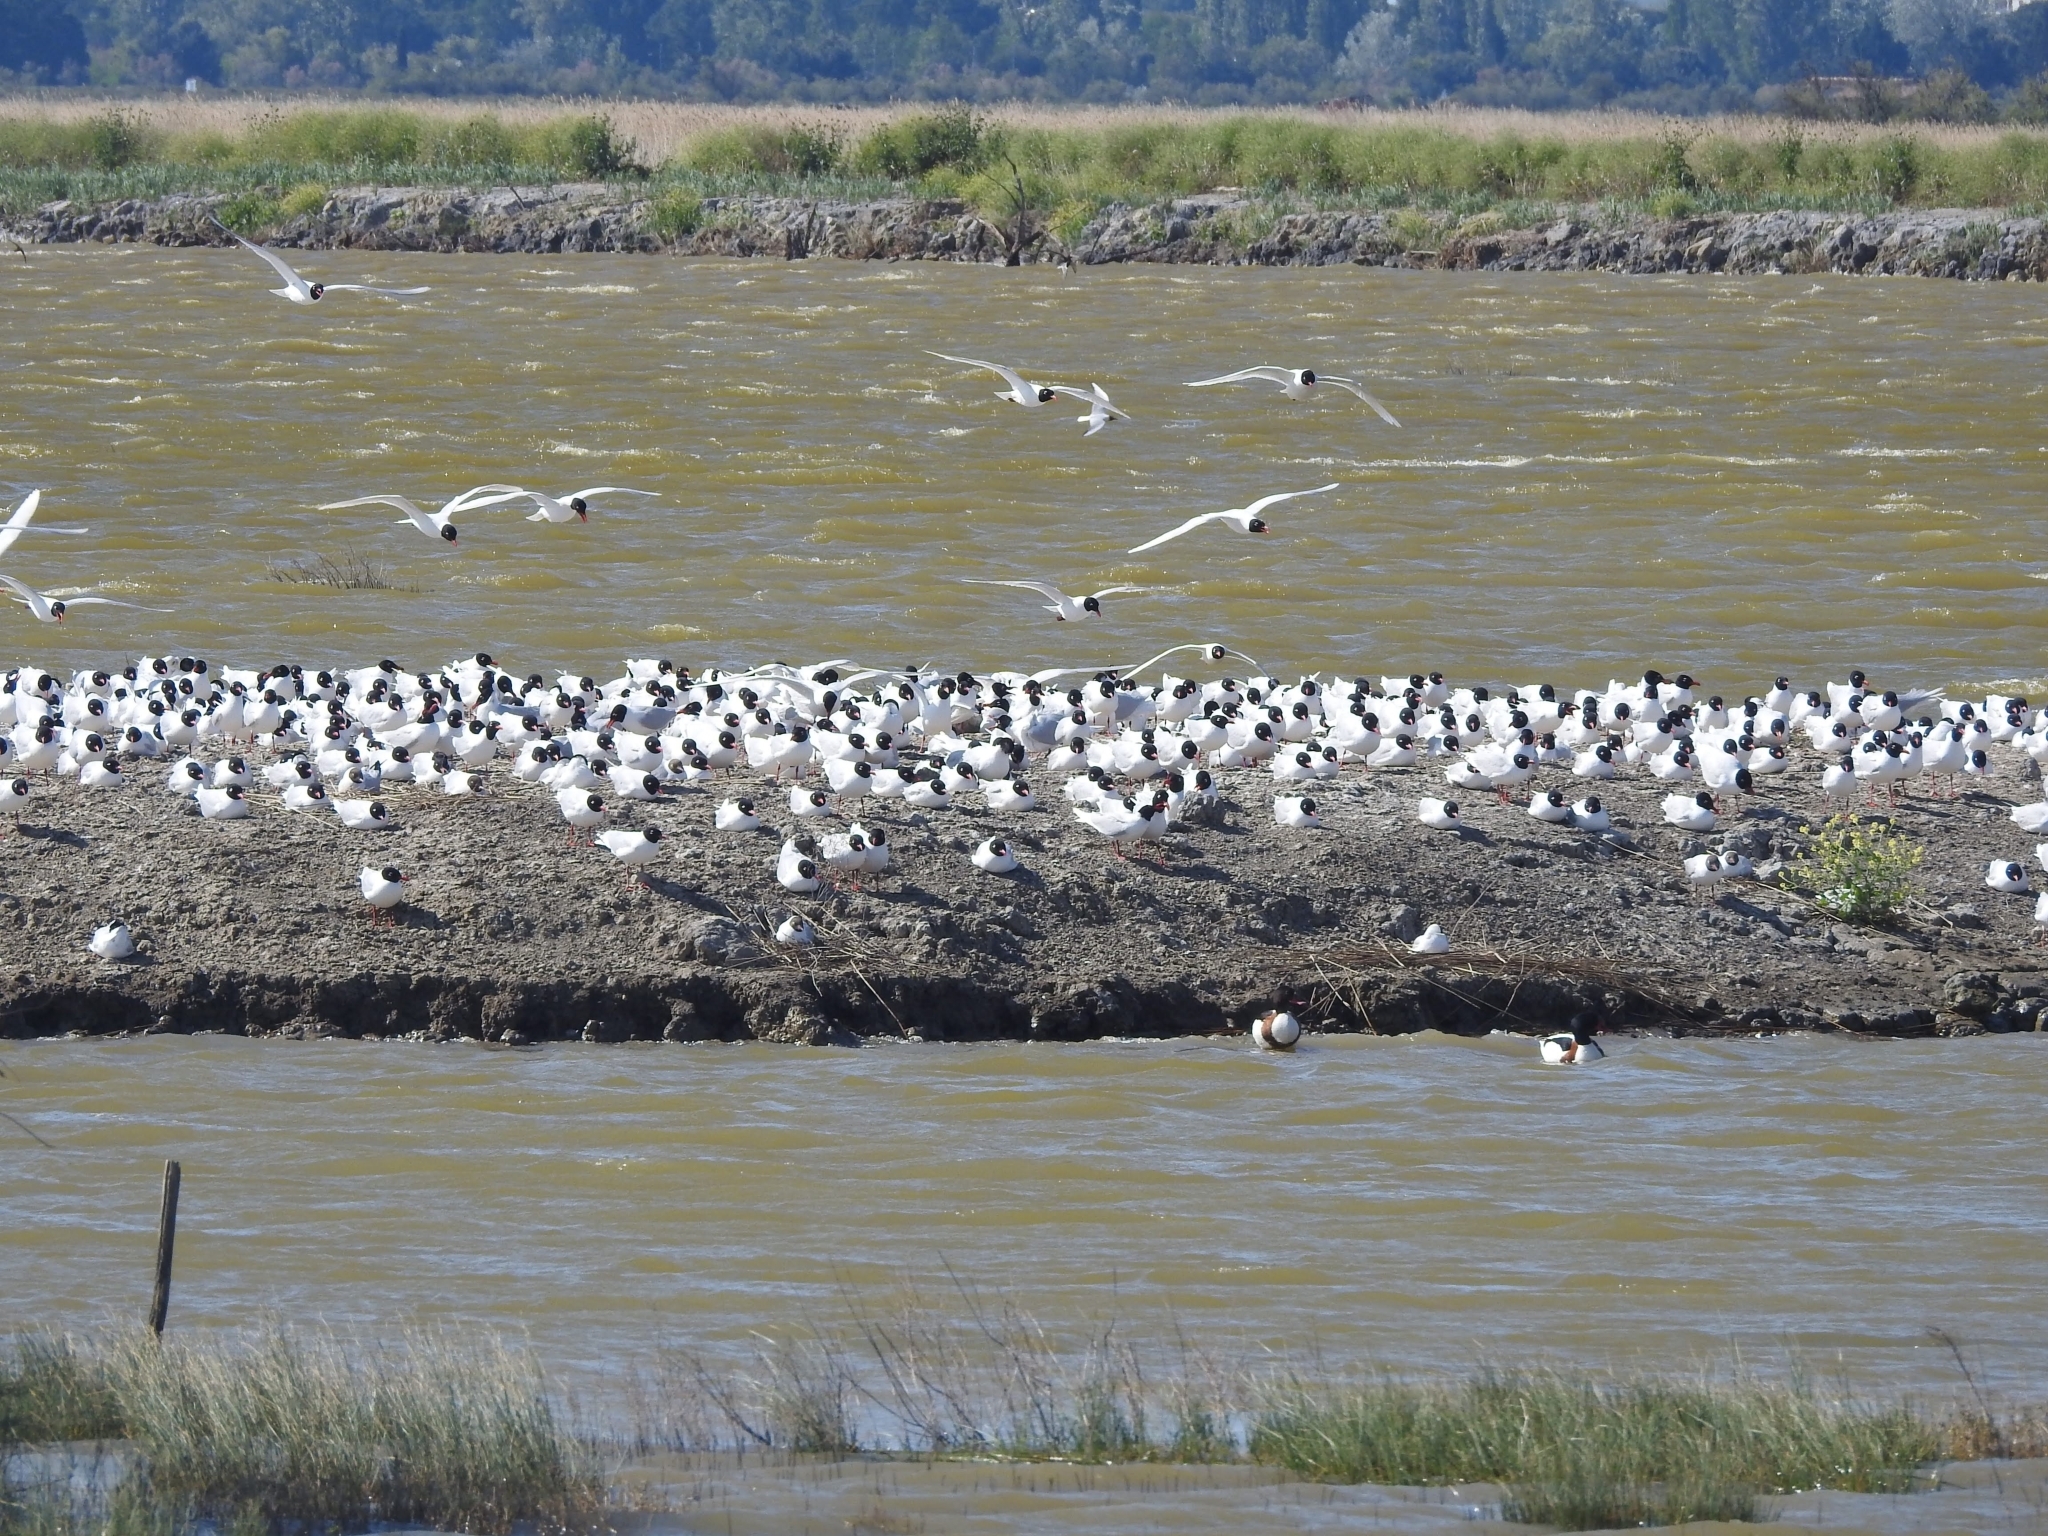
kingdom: Animalia
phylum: Chordata
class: Aves
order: Charadriiformes
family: Laridae
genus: Ichthyaetus
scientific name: Ichthyaetus melanocephalus
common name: Mediterranean gull
